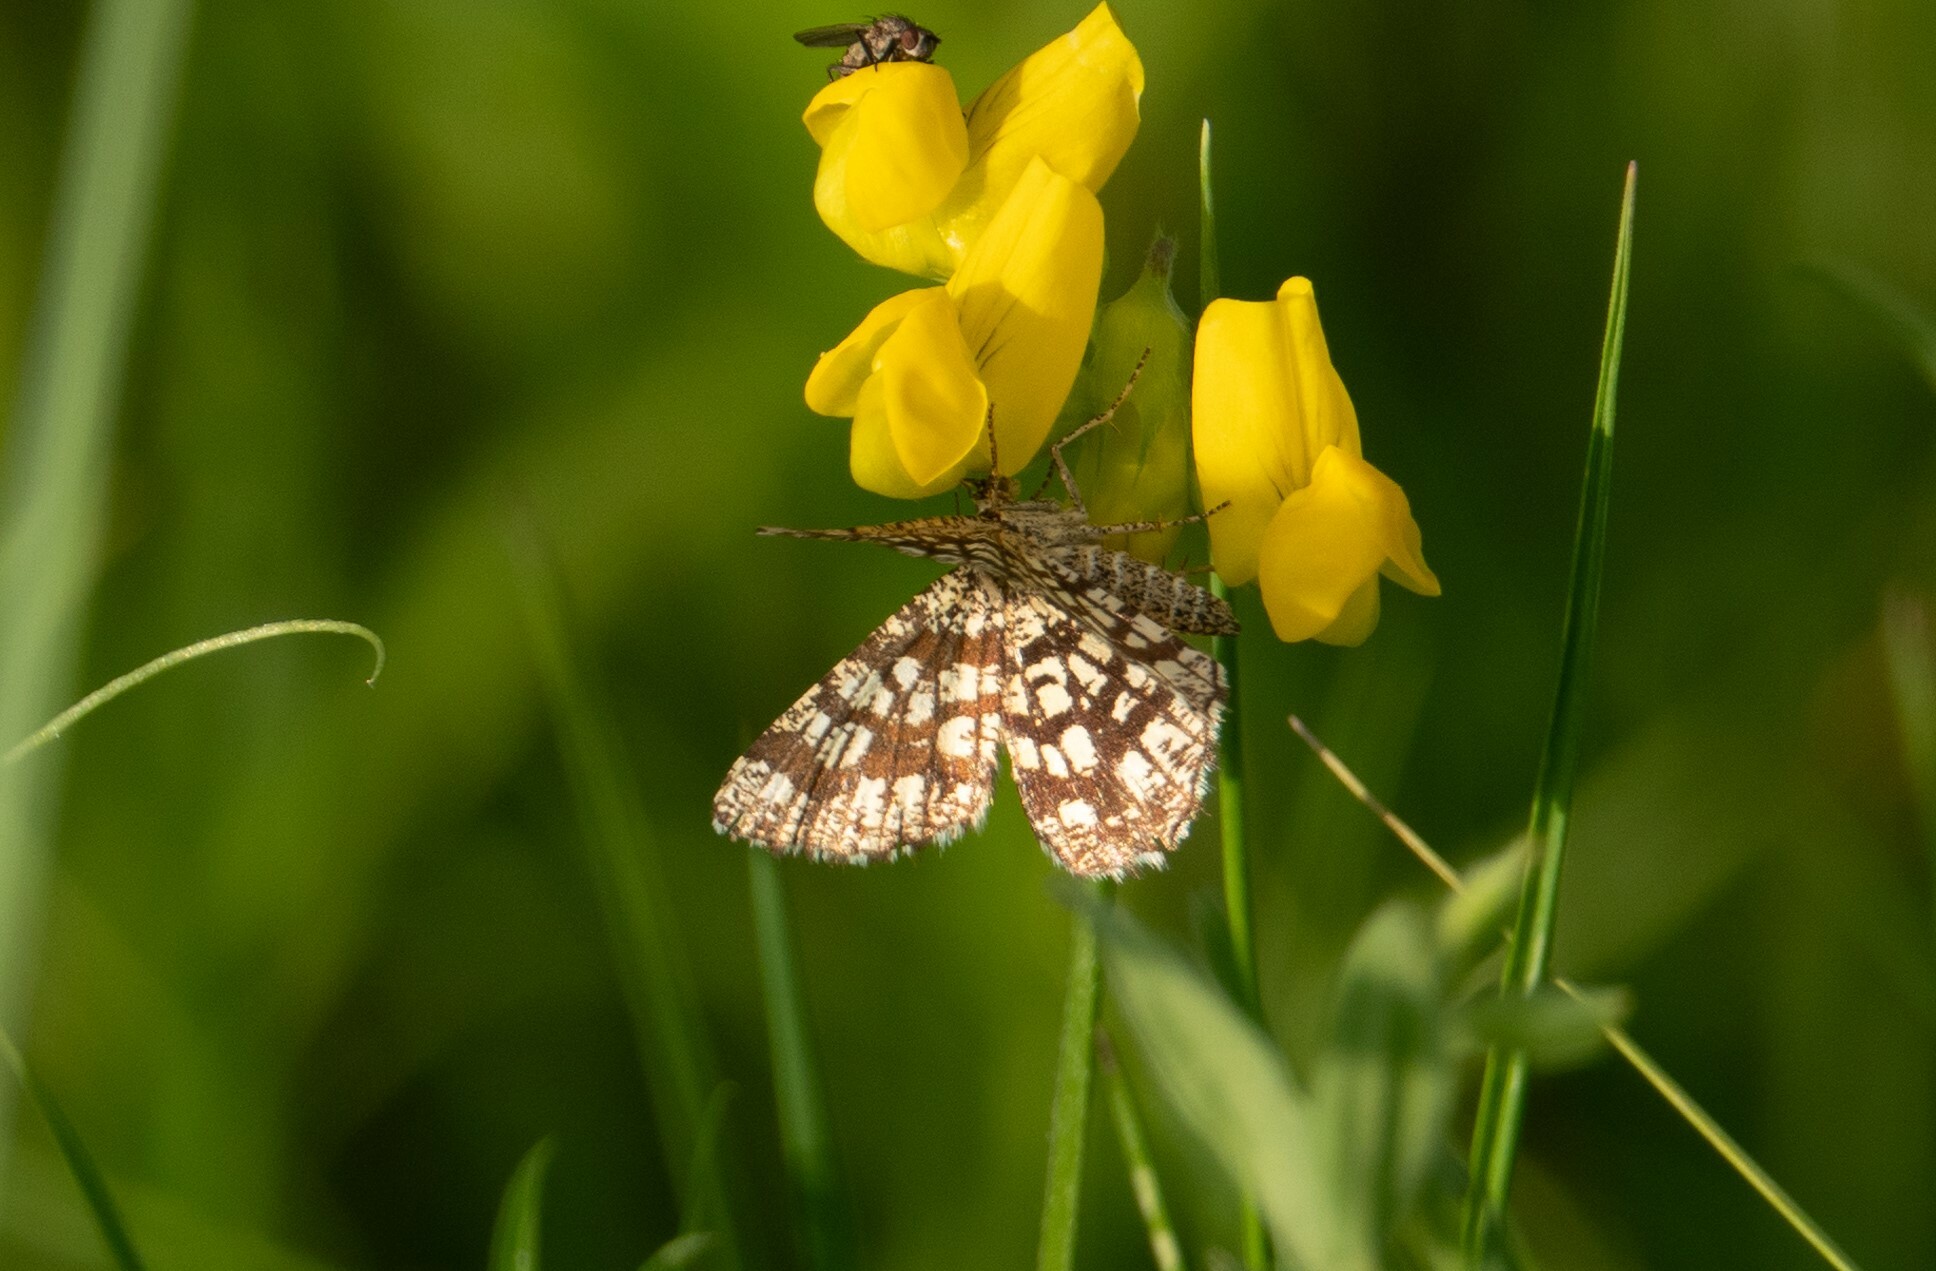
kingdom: Animalia
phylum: Arthropoda
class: Insecta
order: Lepidoptera
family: Geometridae
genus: Chiasmia
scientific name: Chiasmia clathrata
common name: Latticed heath
